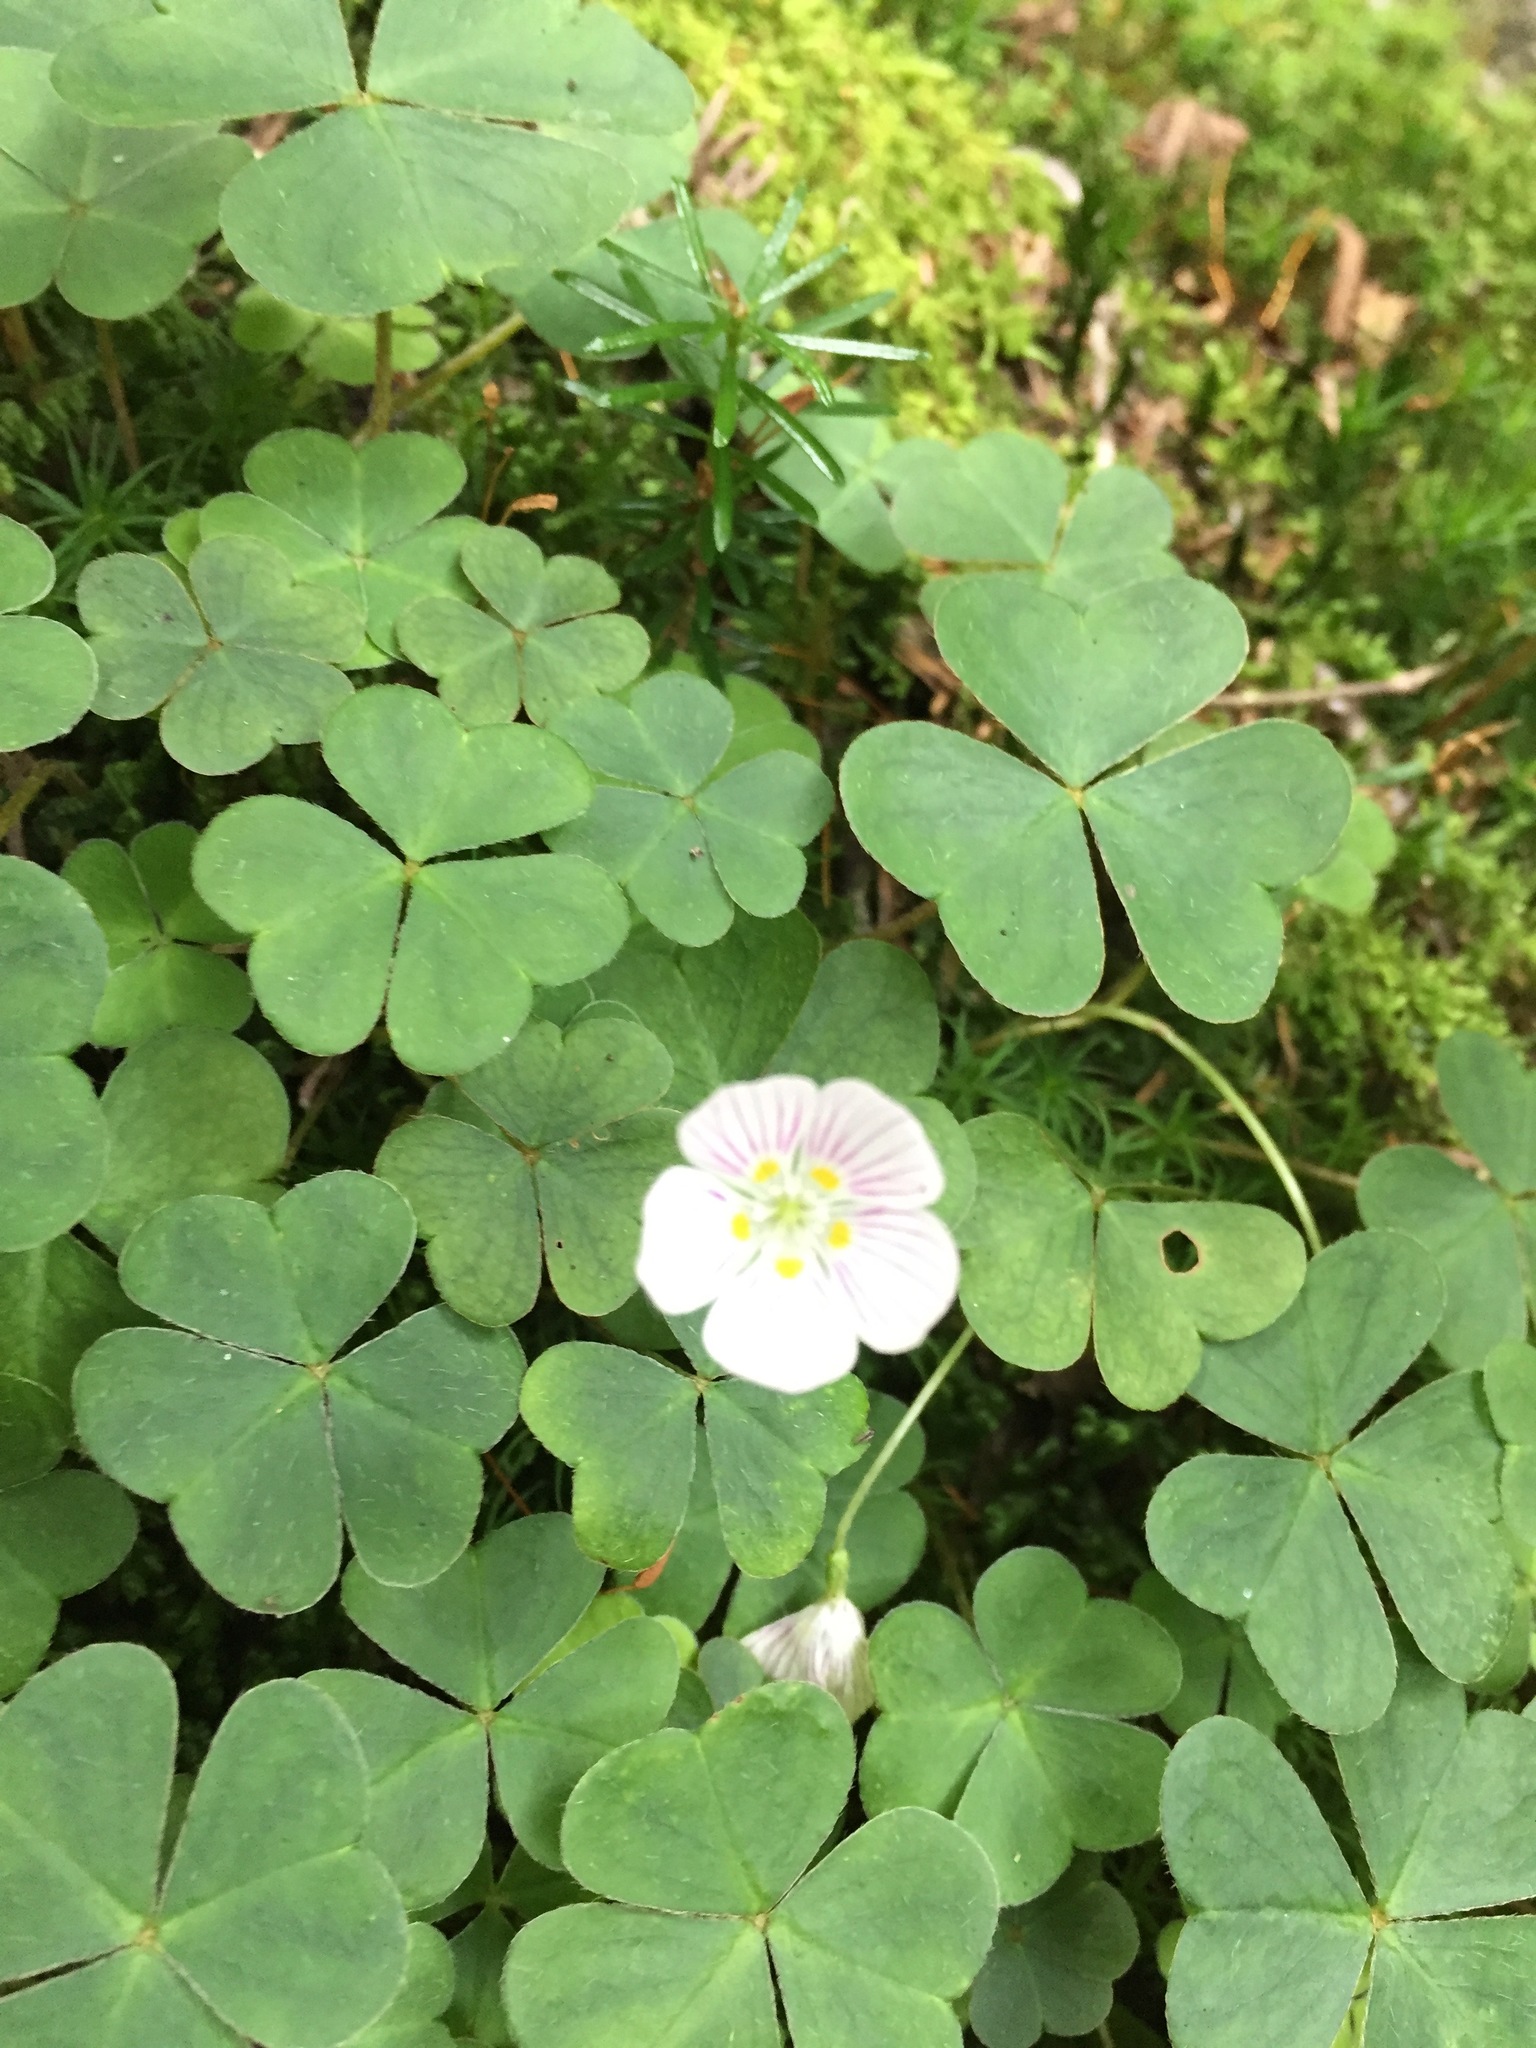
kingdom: Plantae
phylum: Tracheophyta
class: Magnoliopsida
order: Oxalidales
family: Oxalidaceae
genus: Oxalis
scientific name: Oxalis montana
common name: American wood-sorrel
